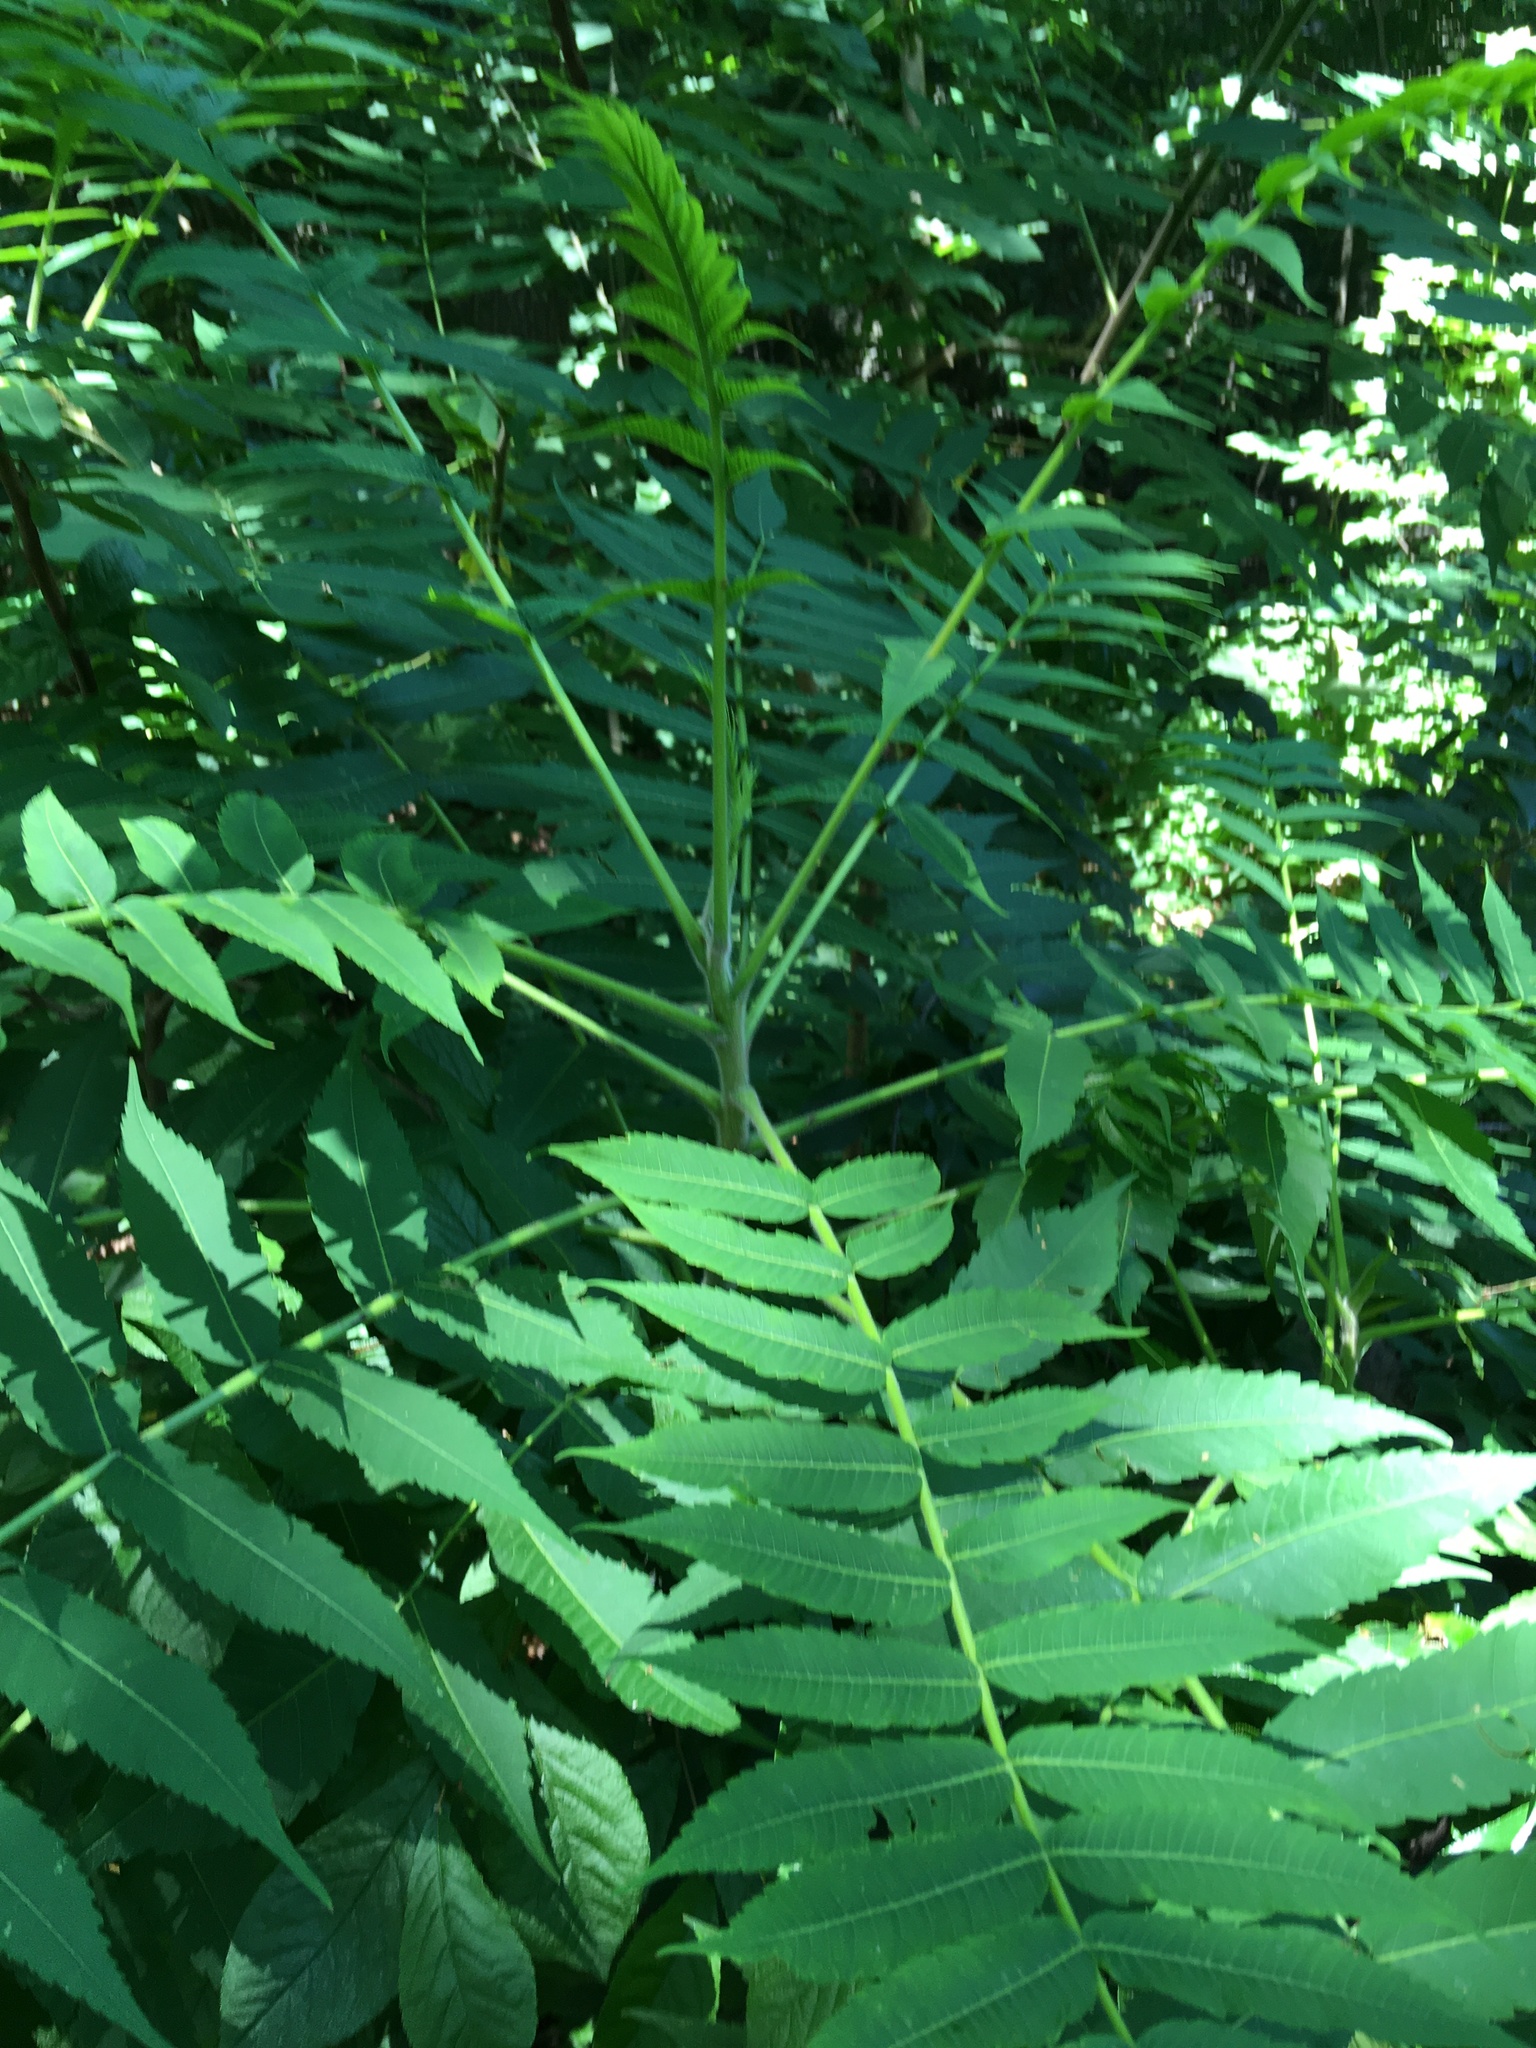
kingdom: Plantae
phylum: Tracheophyta
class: Magnoliopsida
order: Sapindales
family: Anacardiaceae
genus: Rhus
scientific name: Rhus typhina
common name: Staghorn sumac
